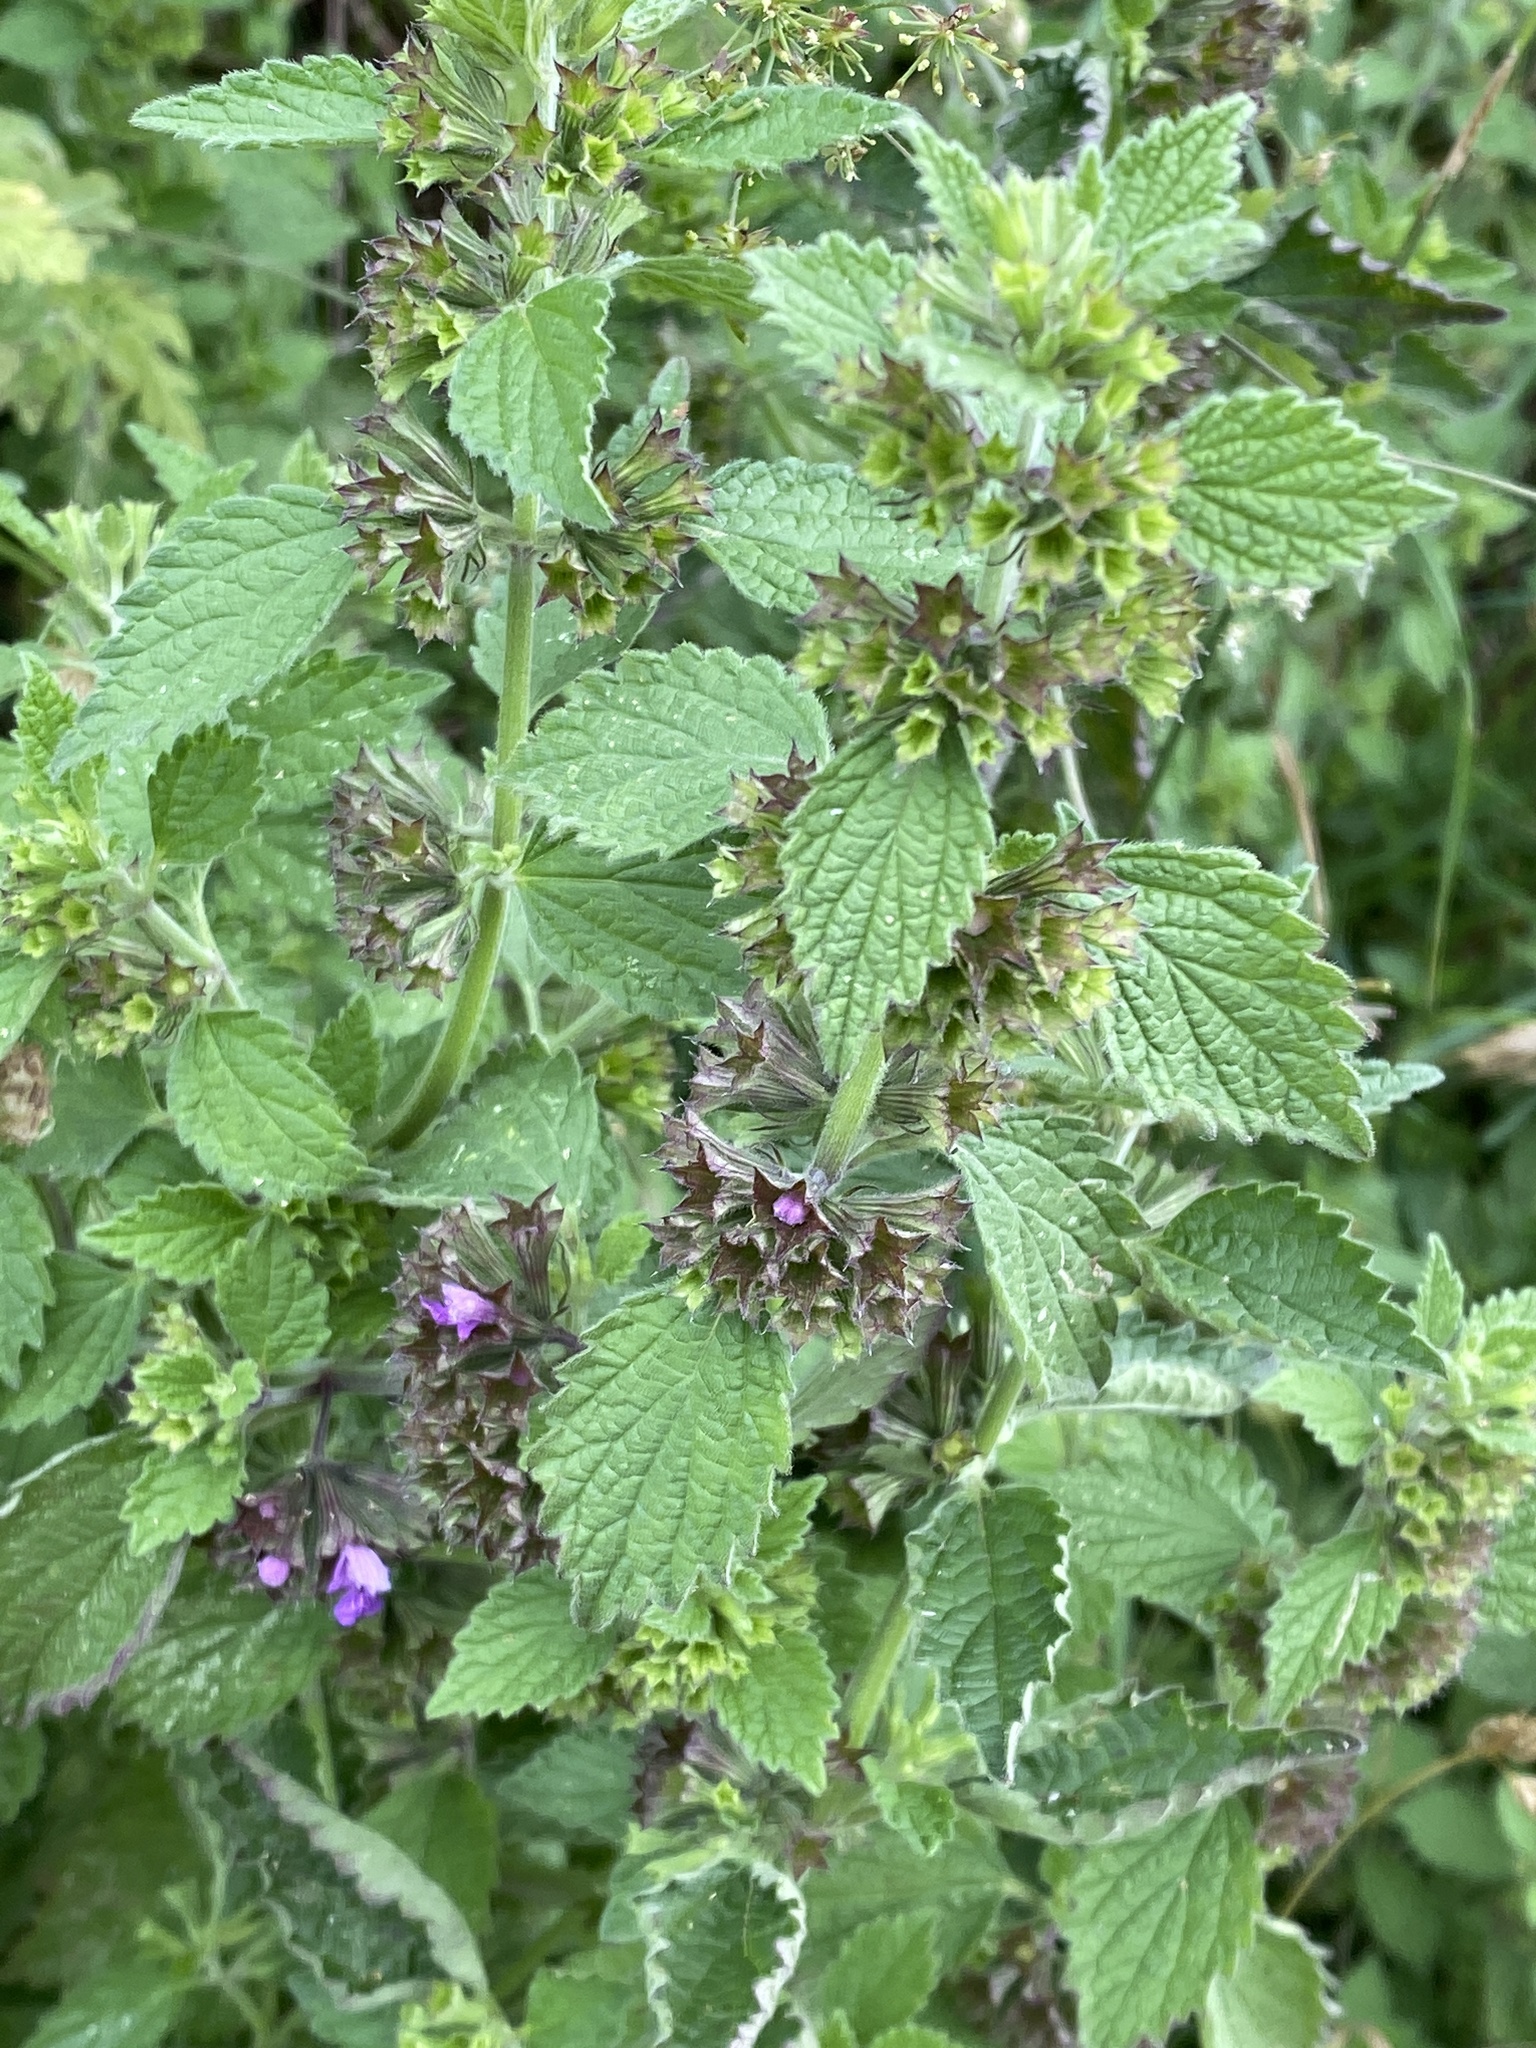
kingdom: Plantae
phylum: Tracheophyta
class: Magnoliopsida
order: Lamiales
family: Lamiaceae
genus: Ballota
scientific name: Ballota nigra
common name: Black horehound
